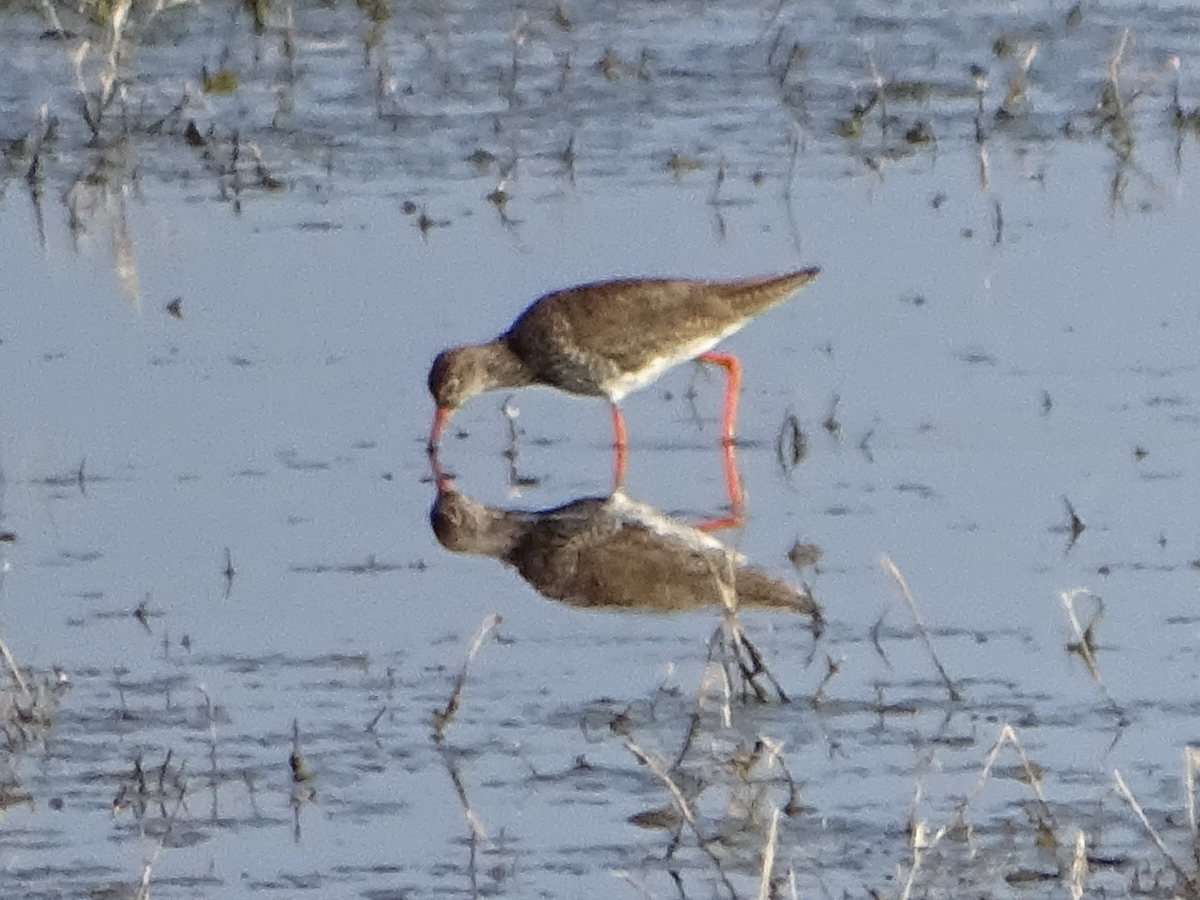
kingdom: Animalia
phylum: Chordata
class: Aves
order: Charadriiformes
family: Scolopacidae
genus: Tringa
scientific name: Tringa totanus
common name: Common redshank
